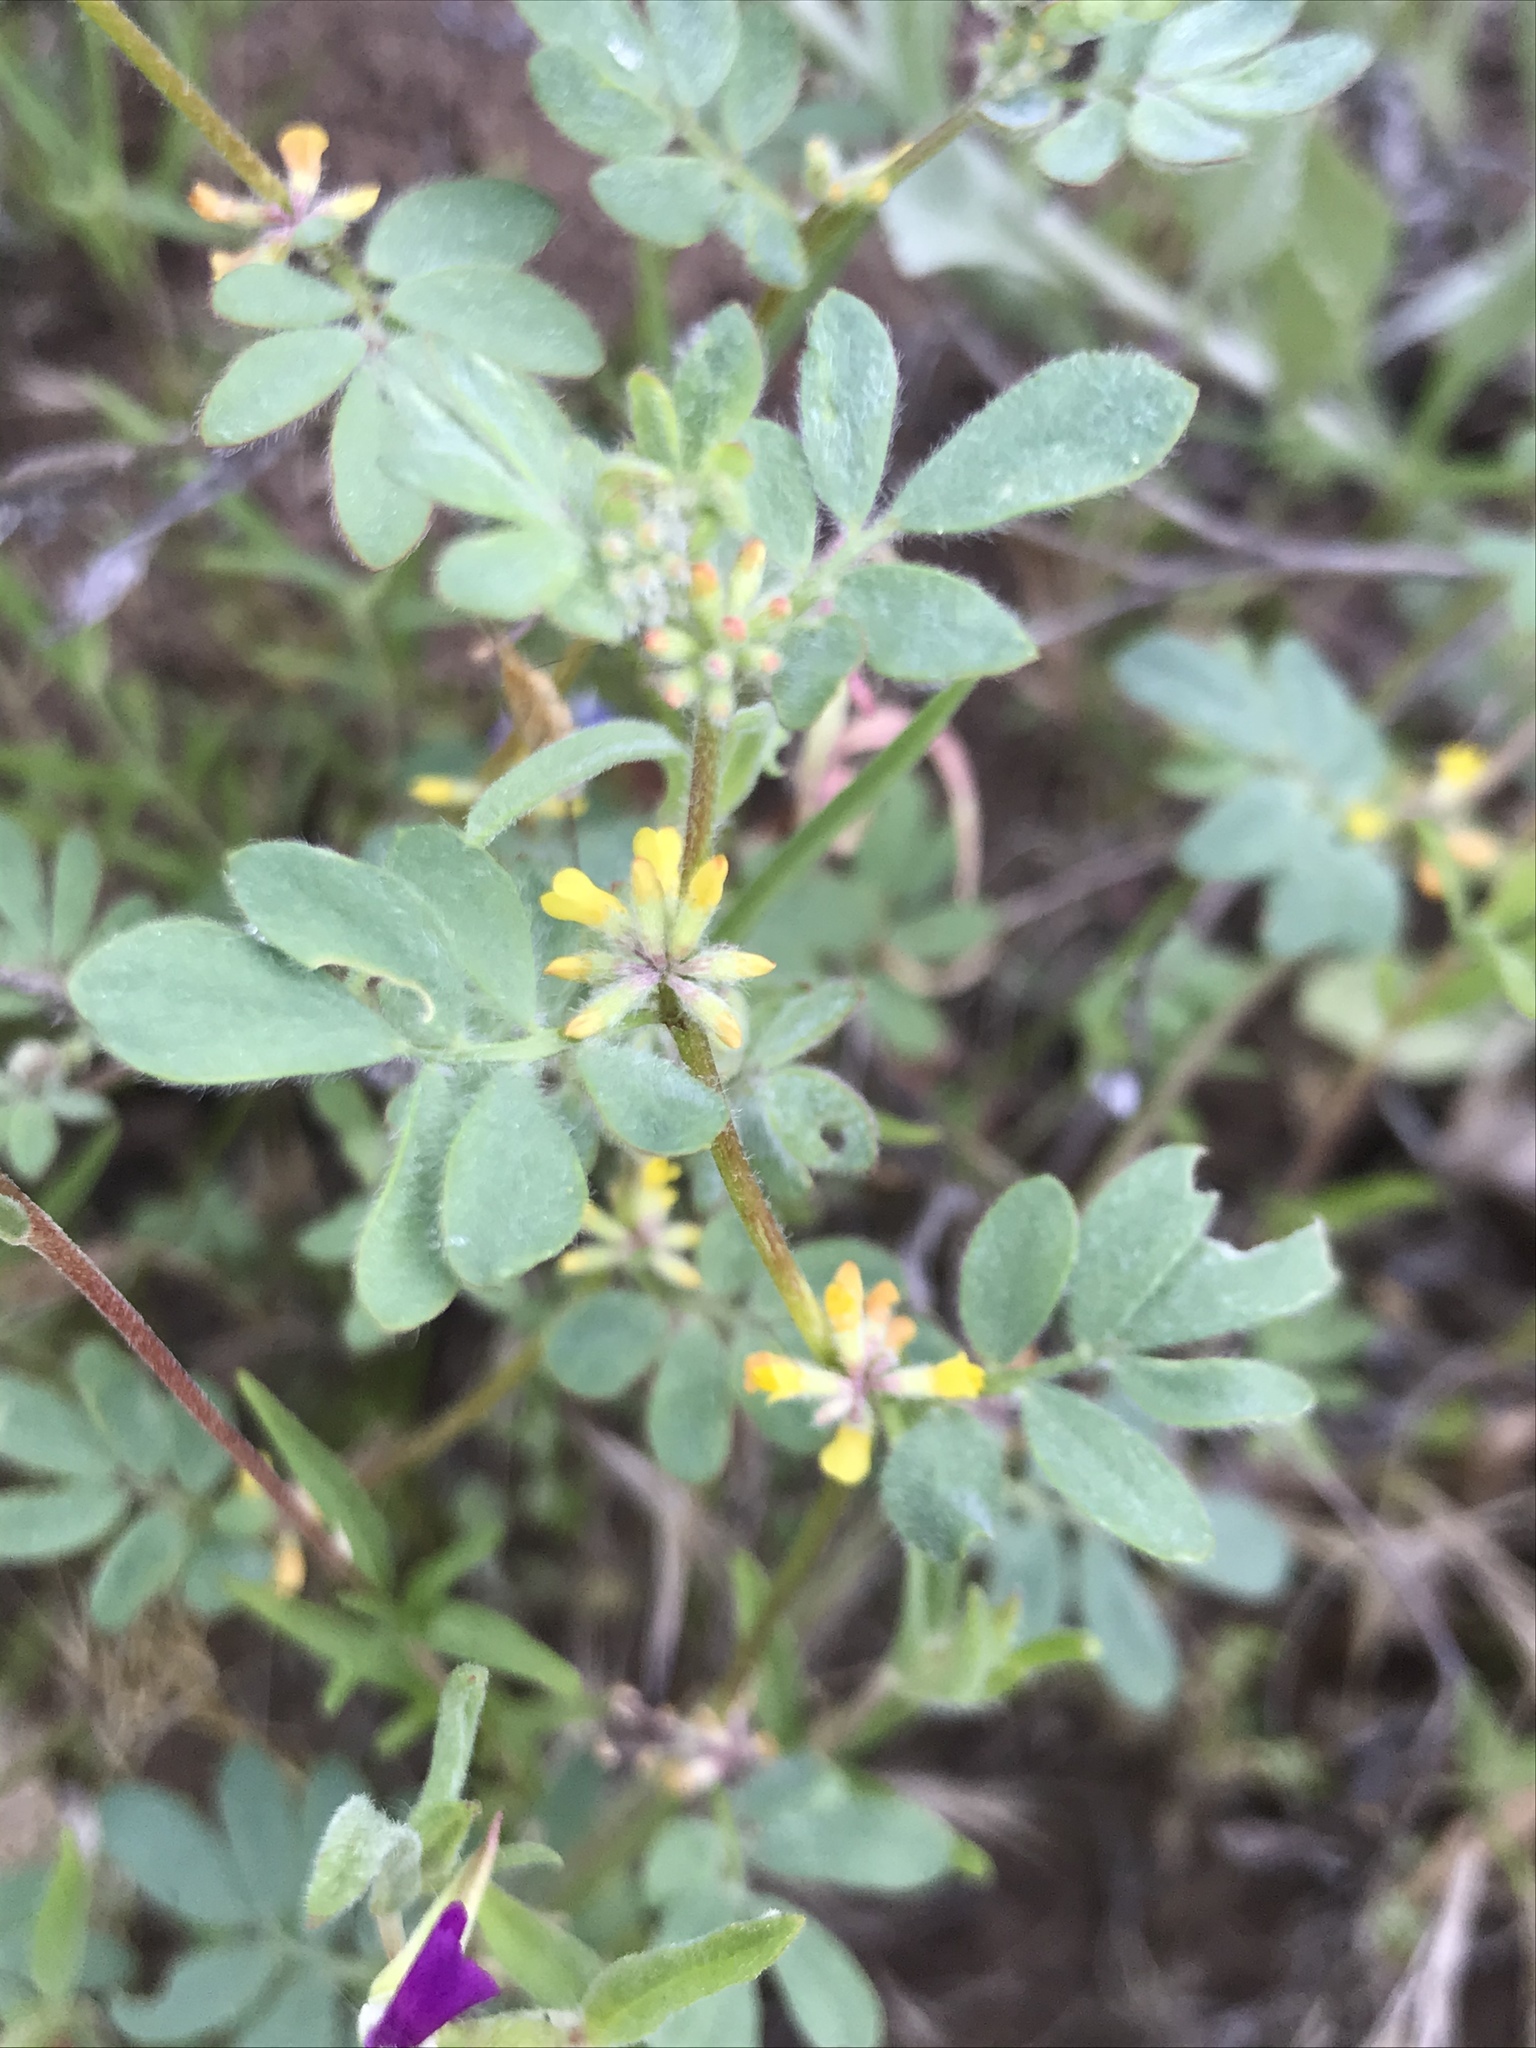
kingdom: Plantae
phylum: Tracheophyta
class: Magnoliopsida
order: Fabales
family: Fabaceae
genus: Acmispon
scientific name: Acmispon micranthus
